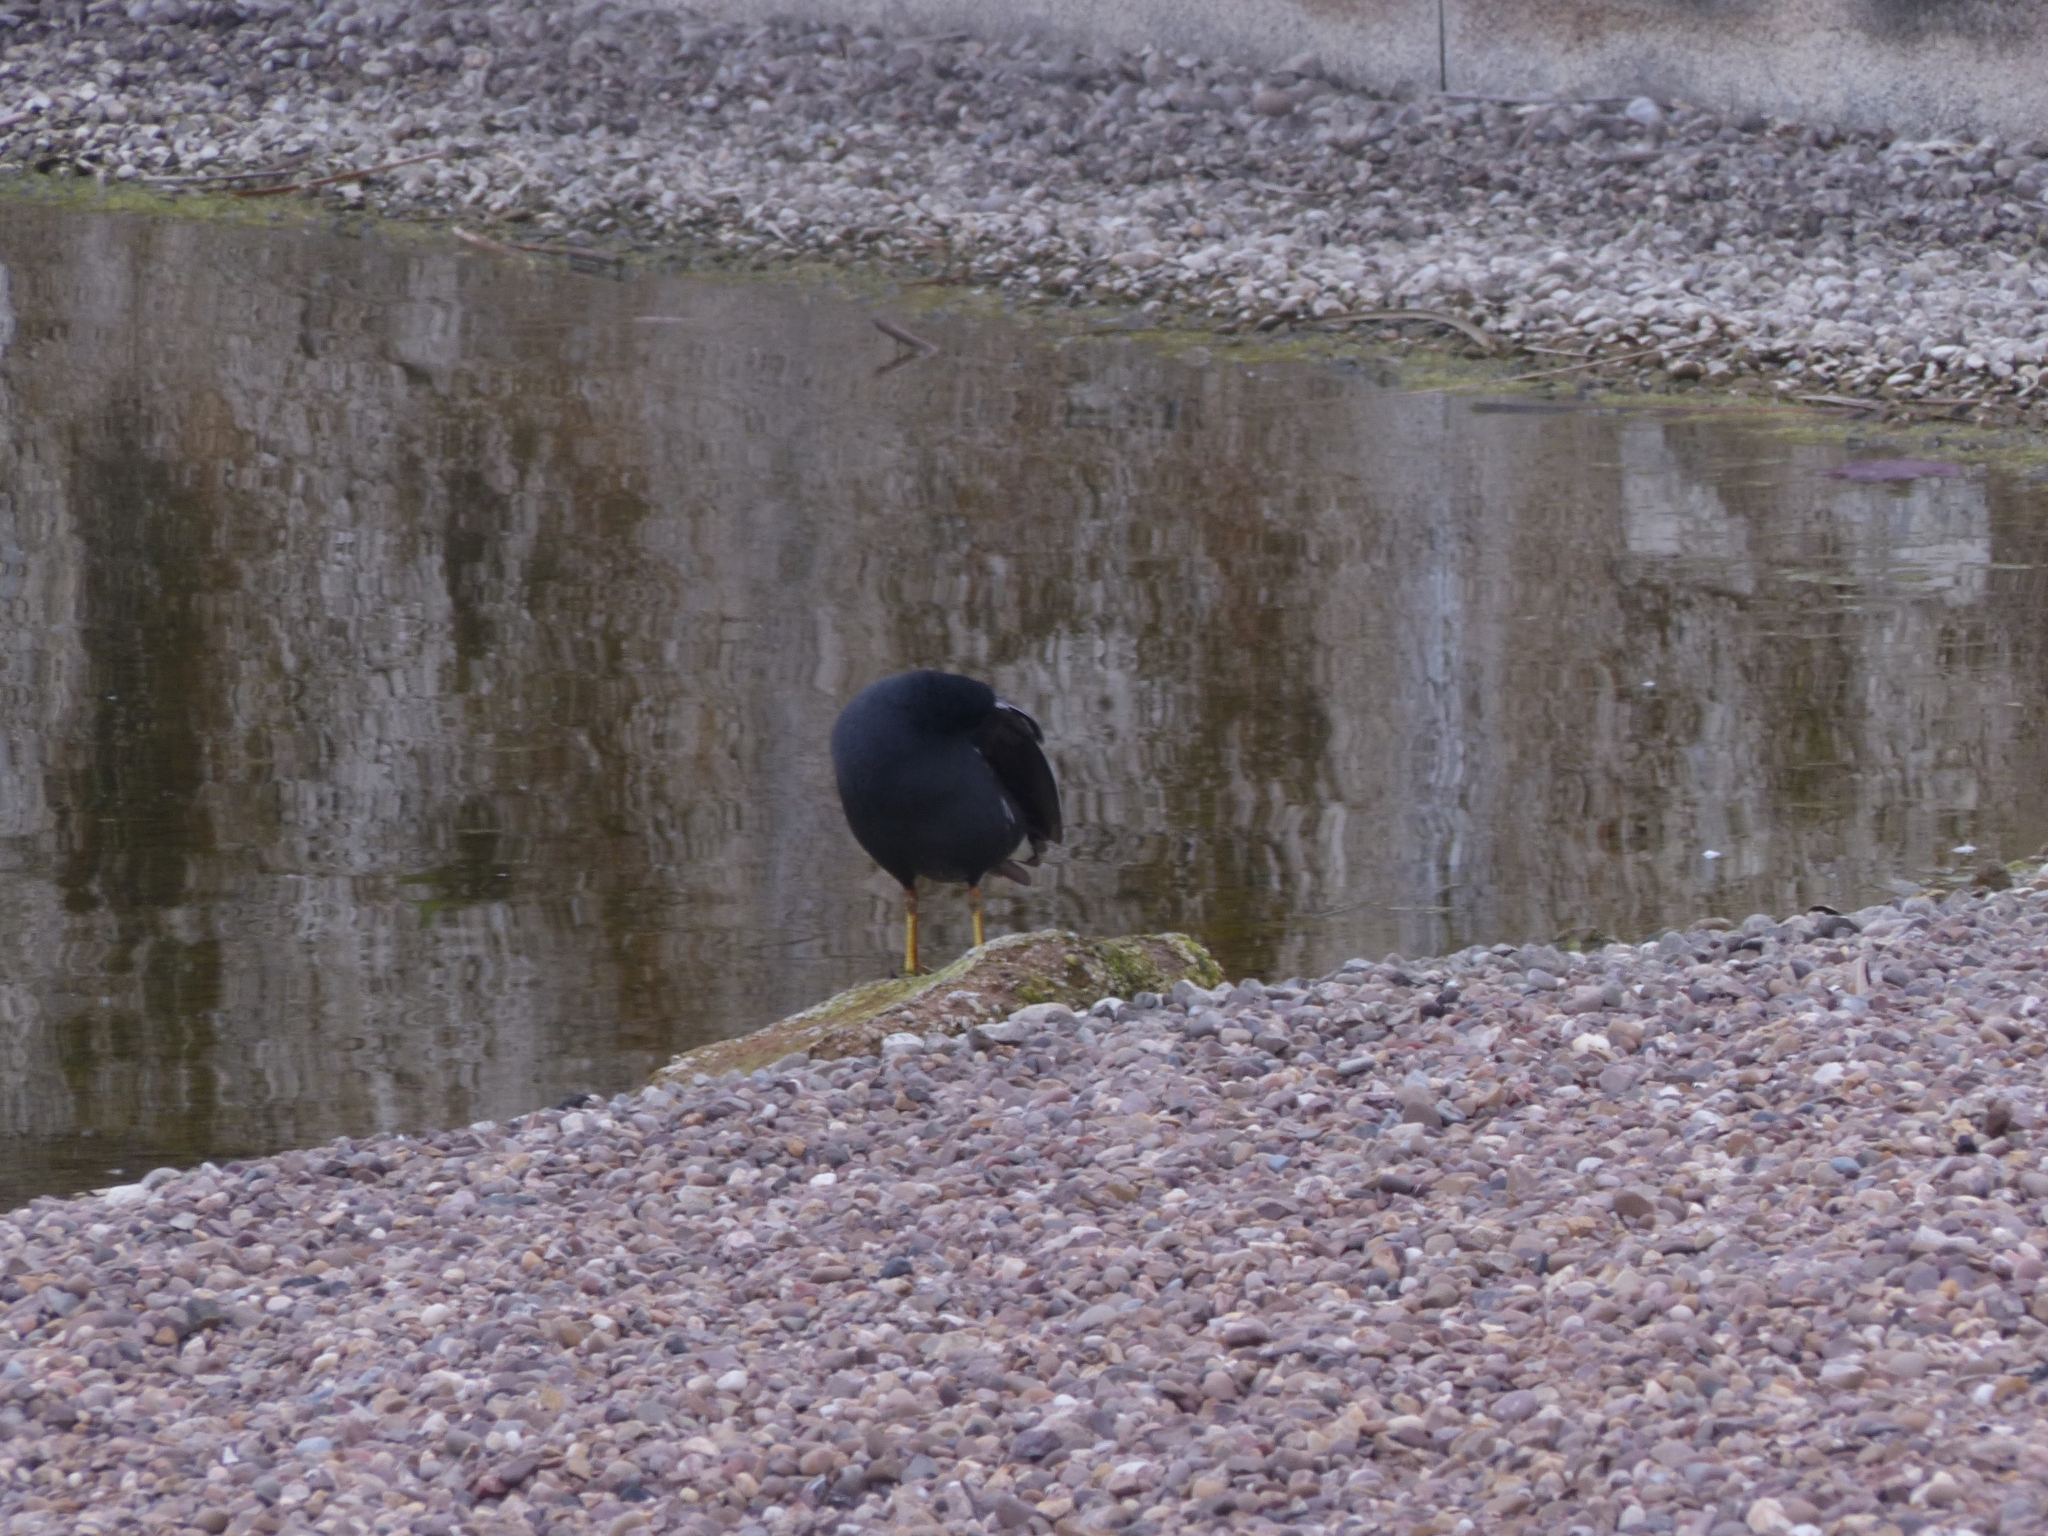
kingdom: Animalia
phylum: Chordata
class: Aves
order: Gruiformes
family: Rallidae
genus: Fulica
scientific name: Fulica atra
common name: Eurasian coot
